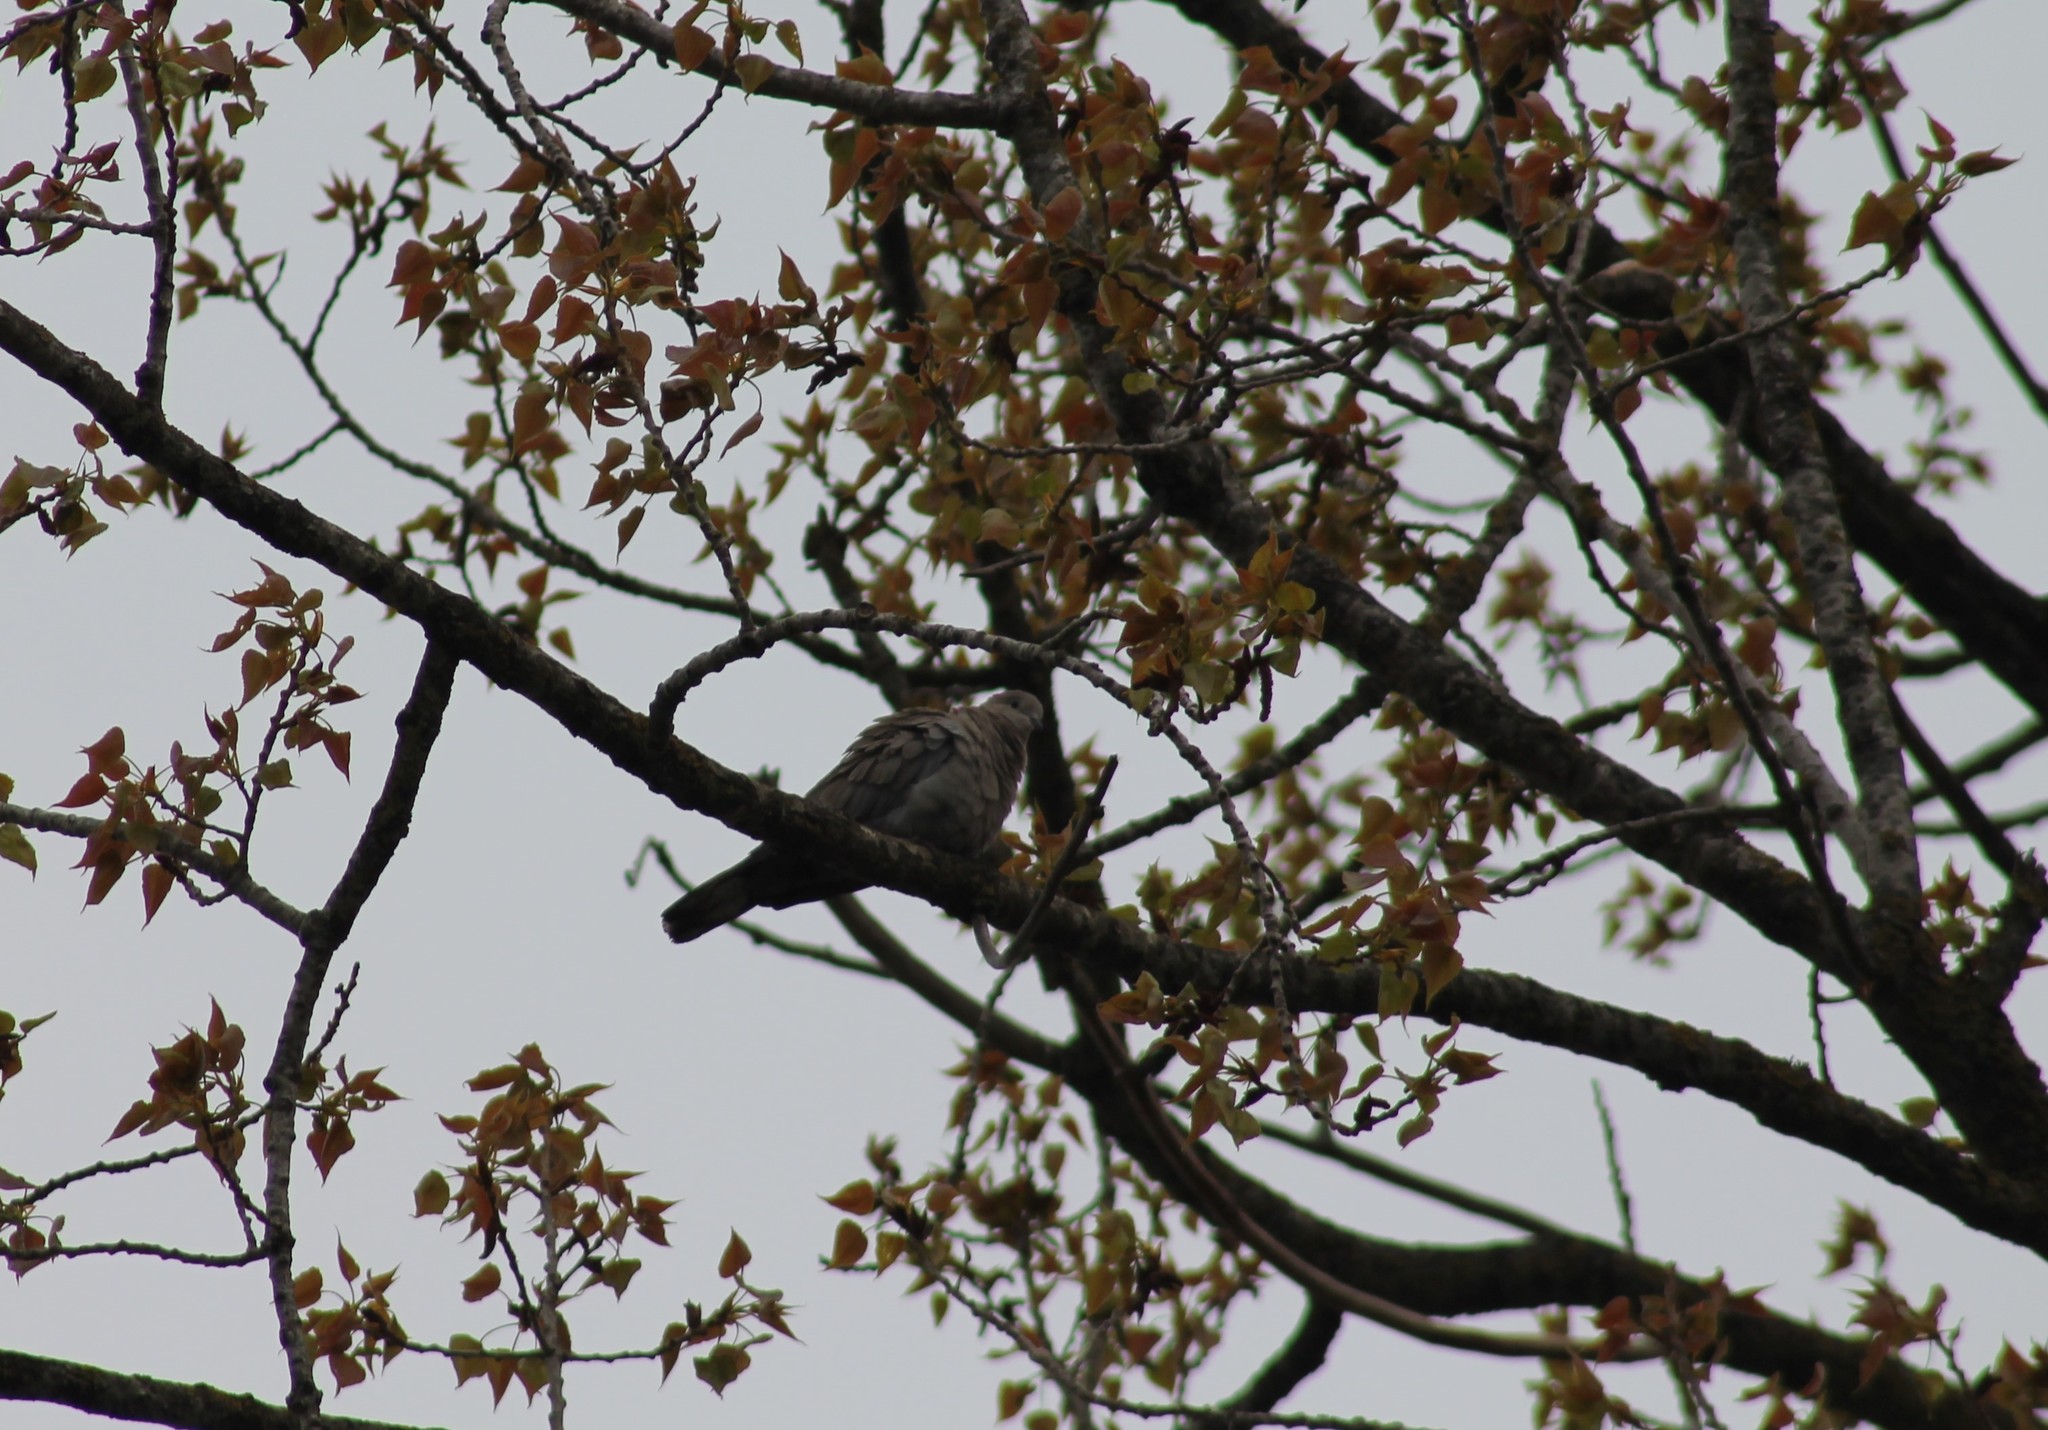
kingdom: Animalia
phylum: Chordata
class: Aves
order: Columbiformes
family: Columbidae
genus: Streptopelia
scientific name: Streptopelia decaocto
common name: Eurasian collared dove
